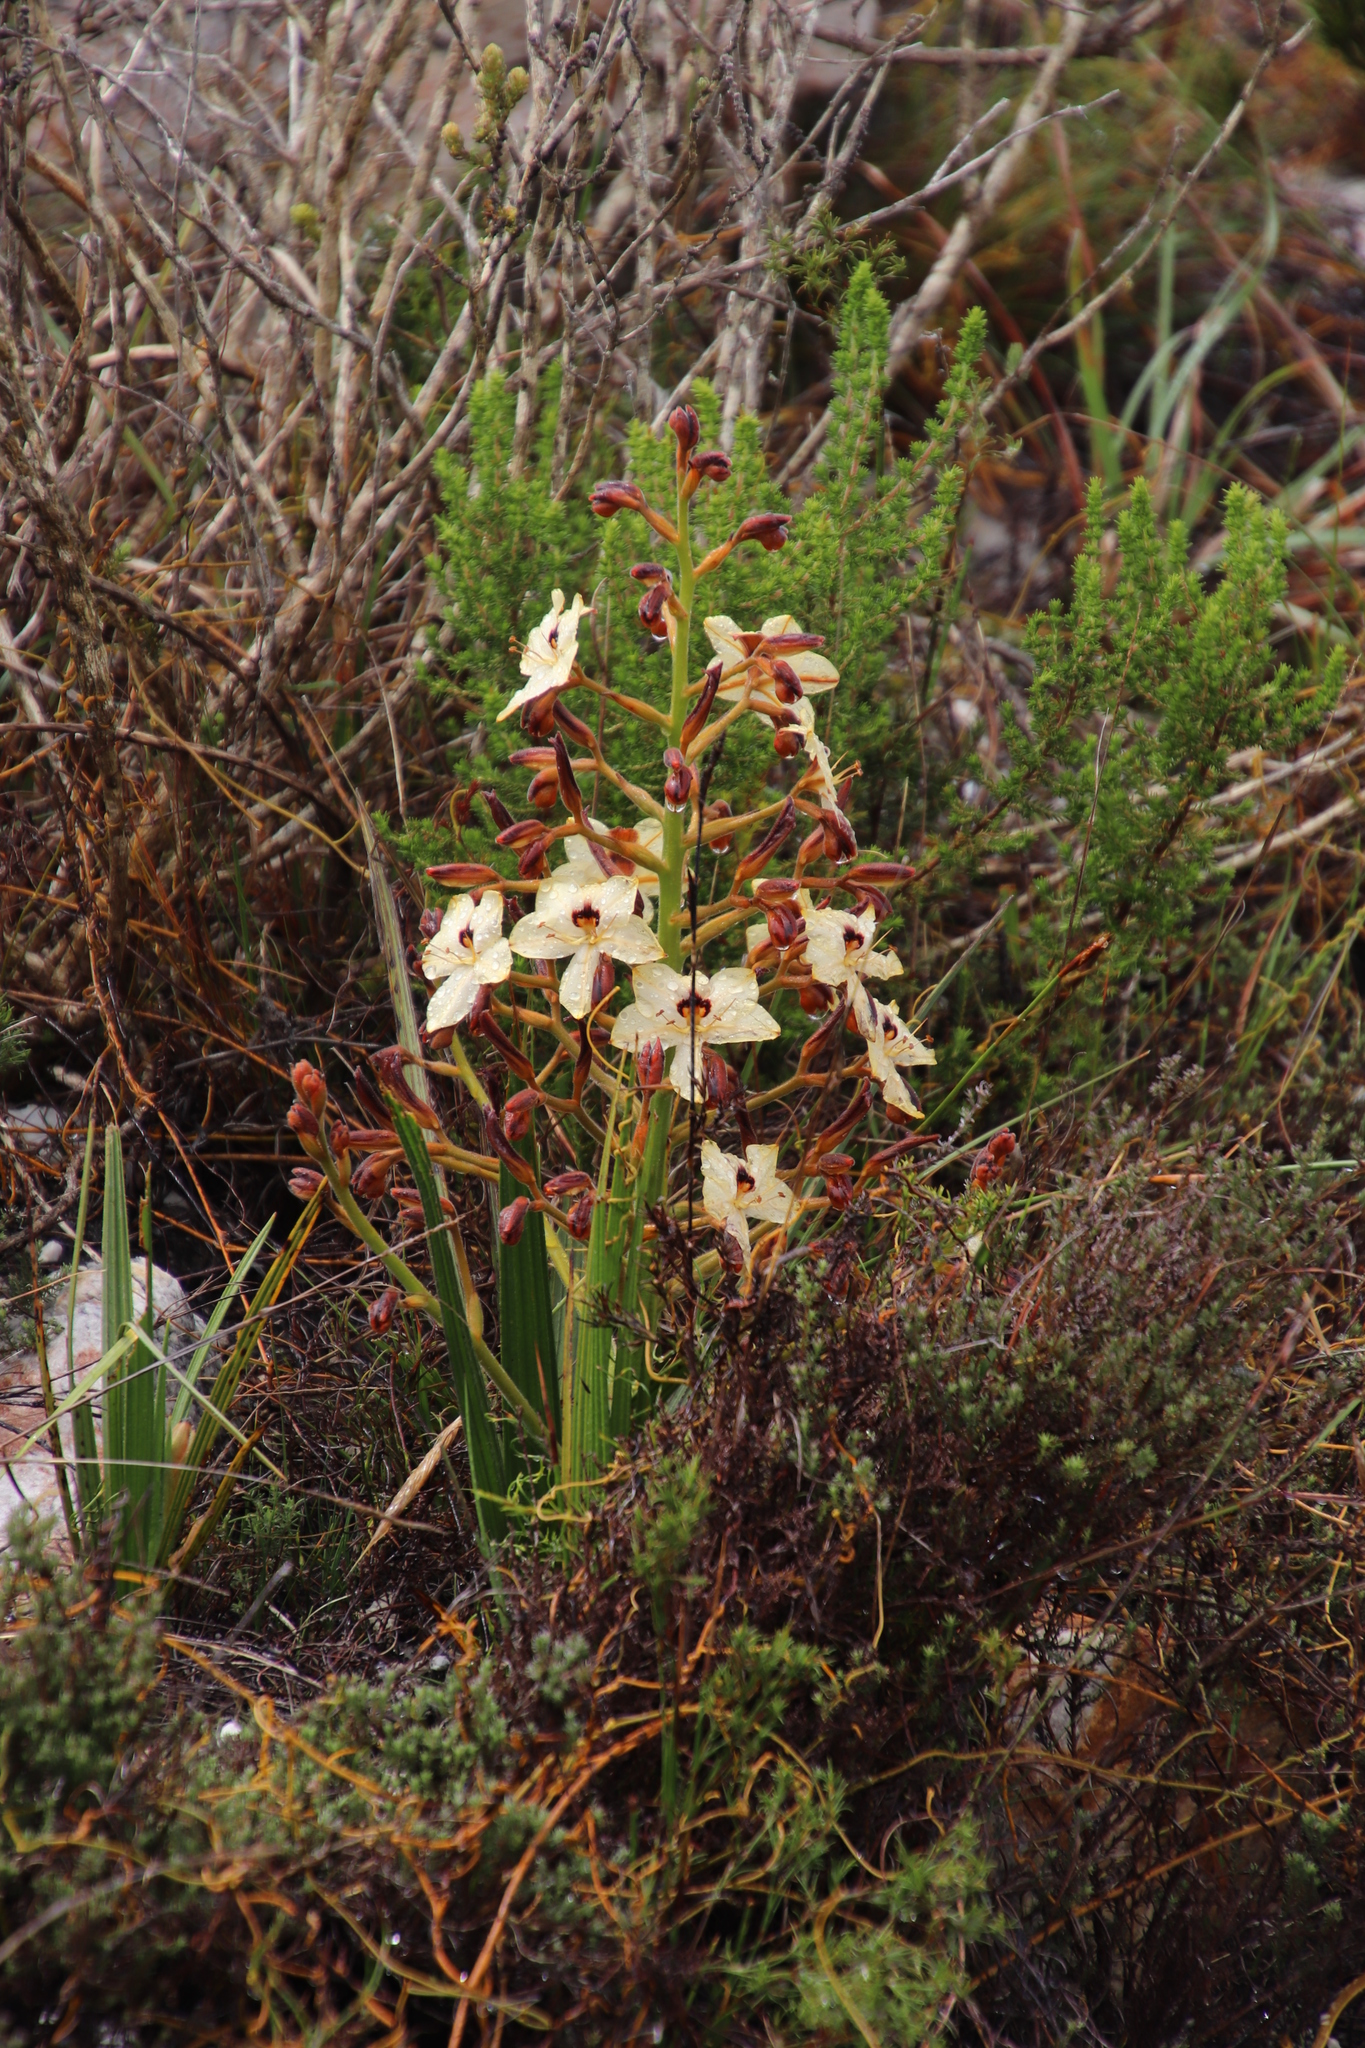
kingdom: Plantae
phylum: Tracheophyta
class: Liliopsida
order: Commelinales
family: Haemodoraceae
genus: Wachendorfia
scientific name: Wachendorfia paniculata
